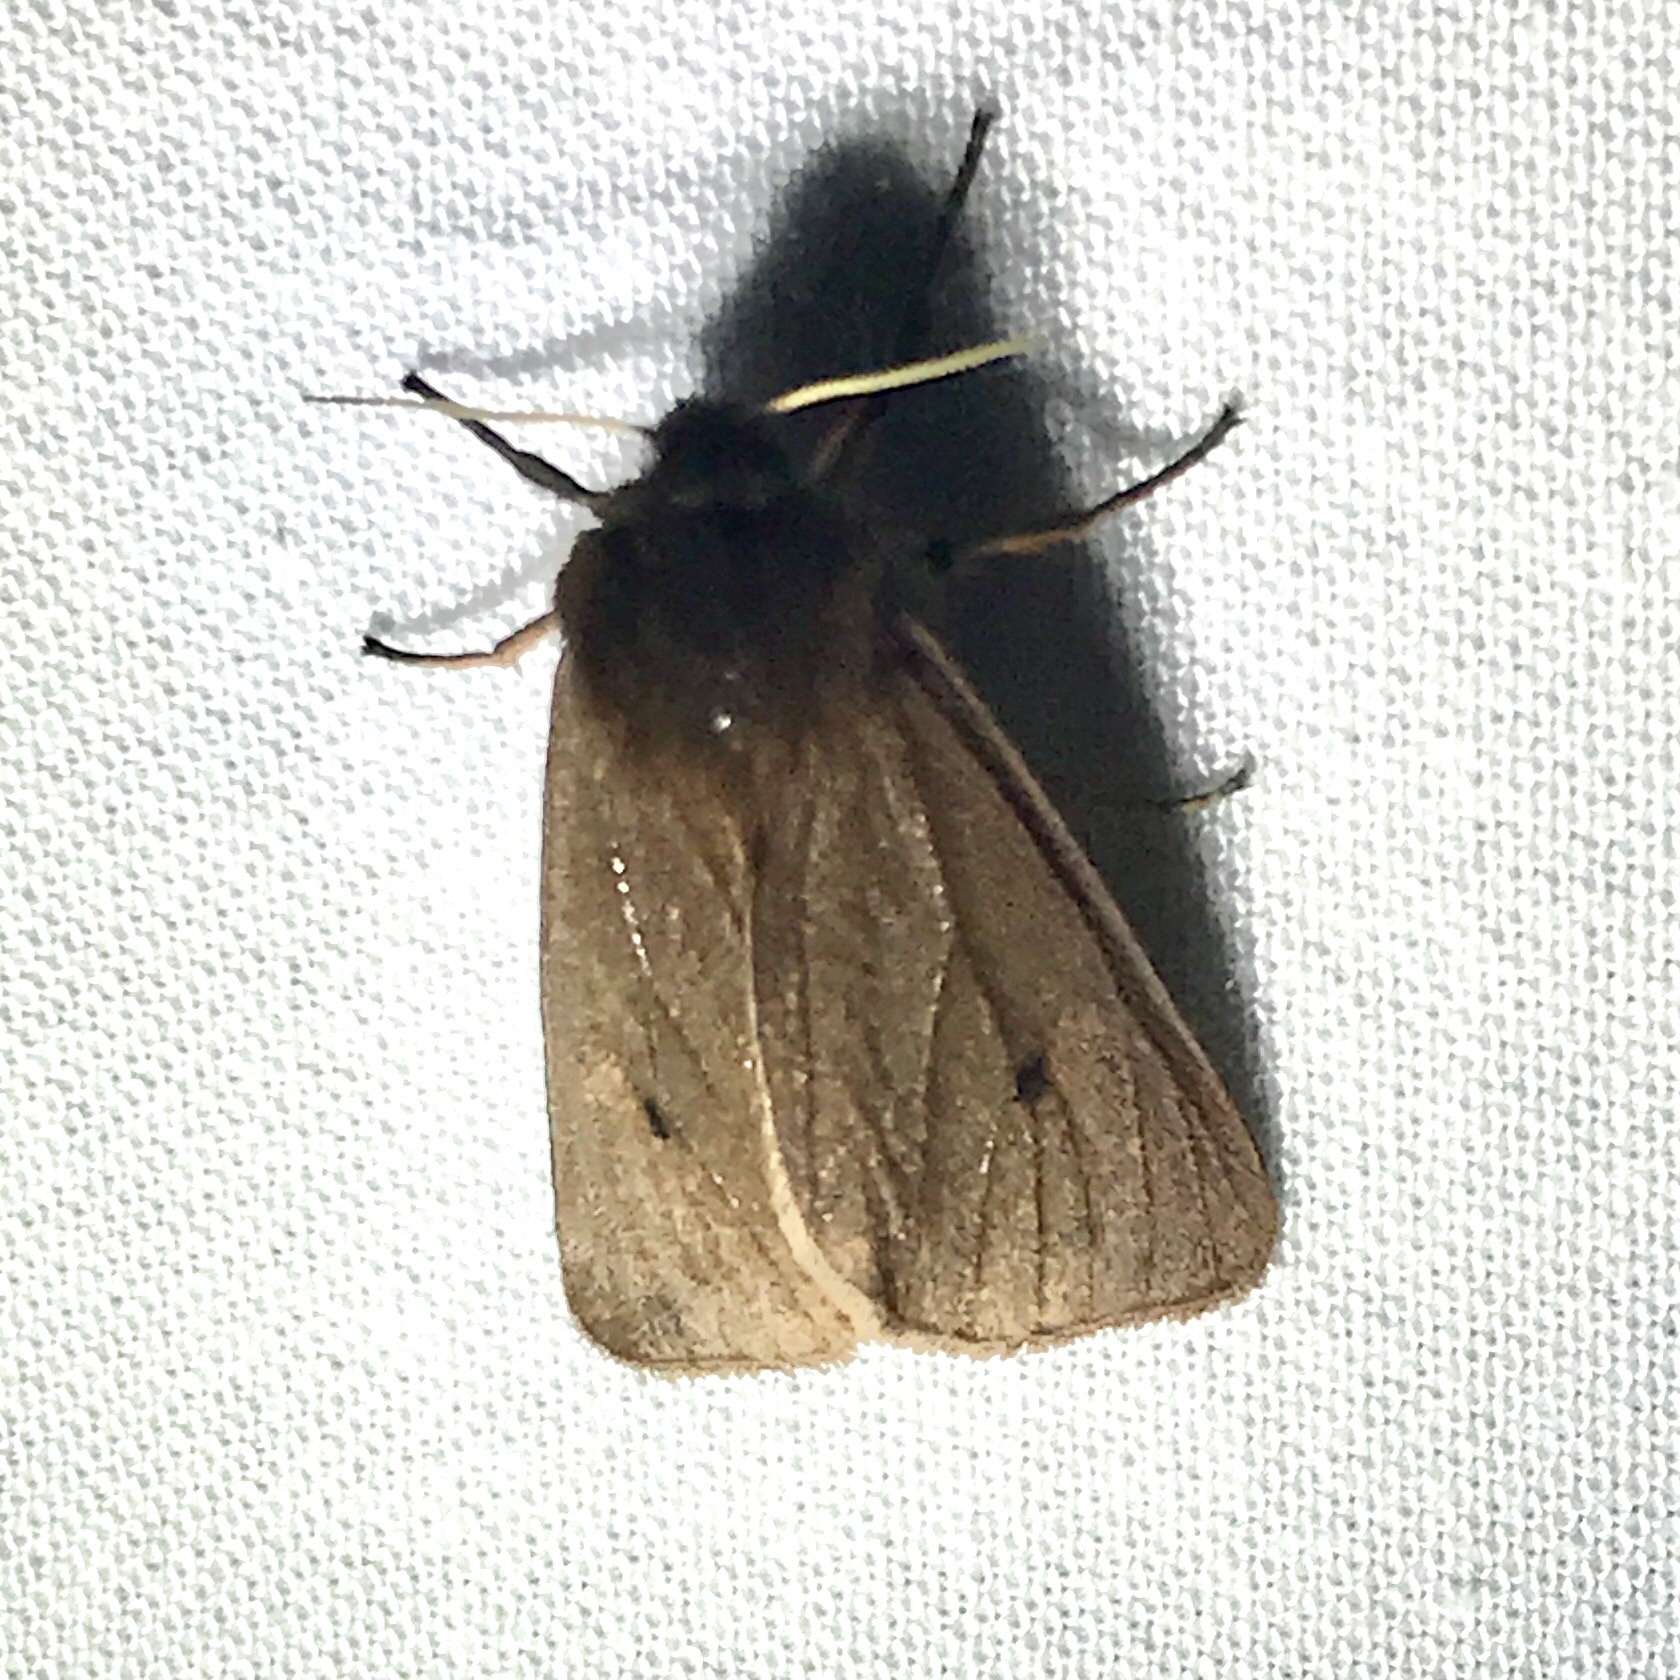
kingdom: Animalia
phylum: Arthropoda
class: Insecta
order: Lepidoptera
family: Erebidae
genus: Phragmatobia
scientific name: Phragmatobia fuliginosa
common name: Ruby tiger
